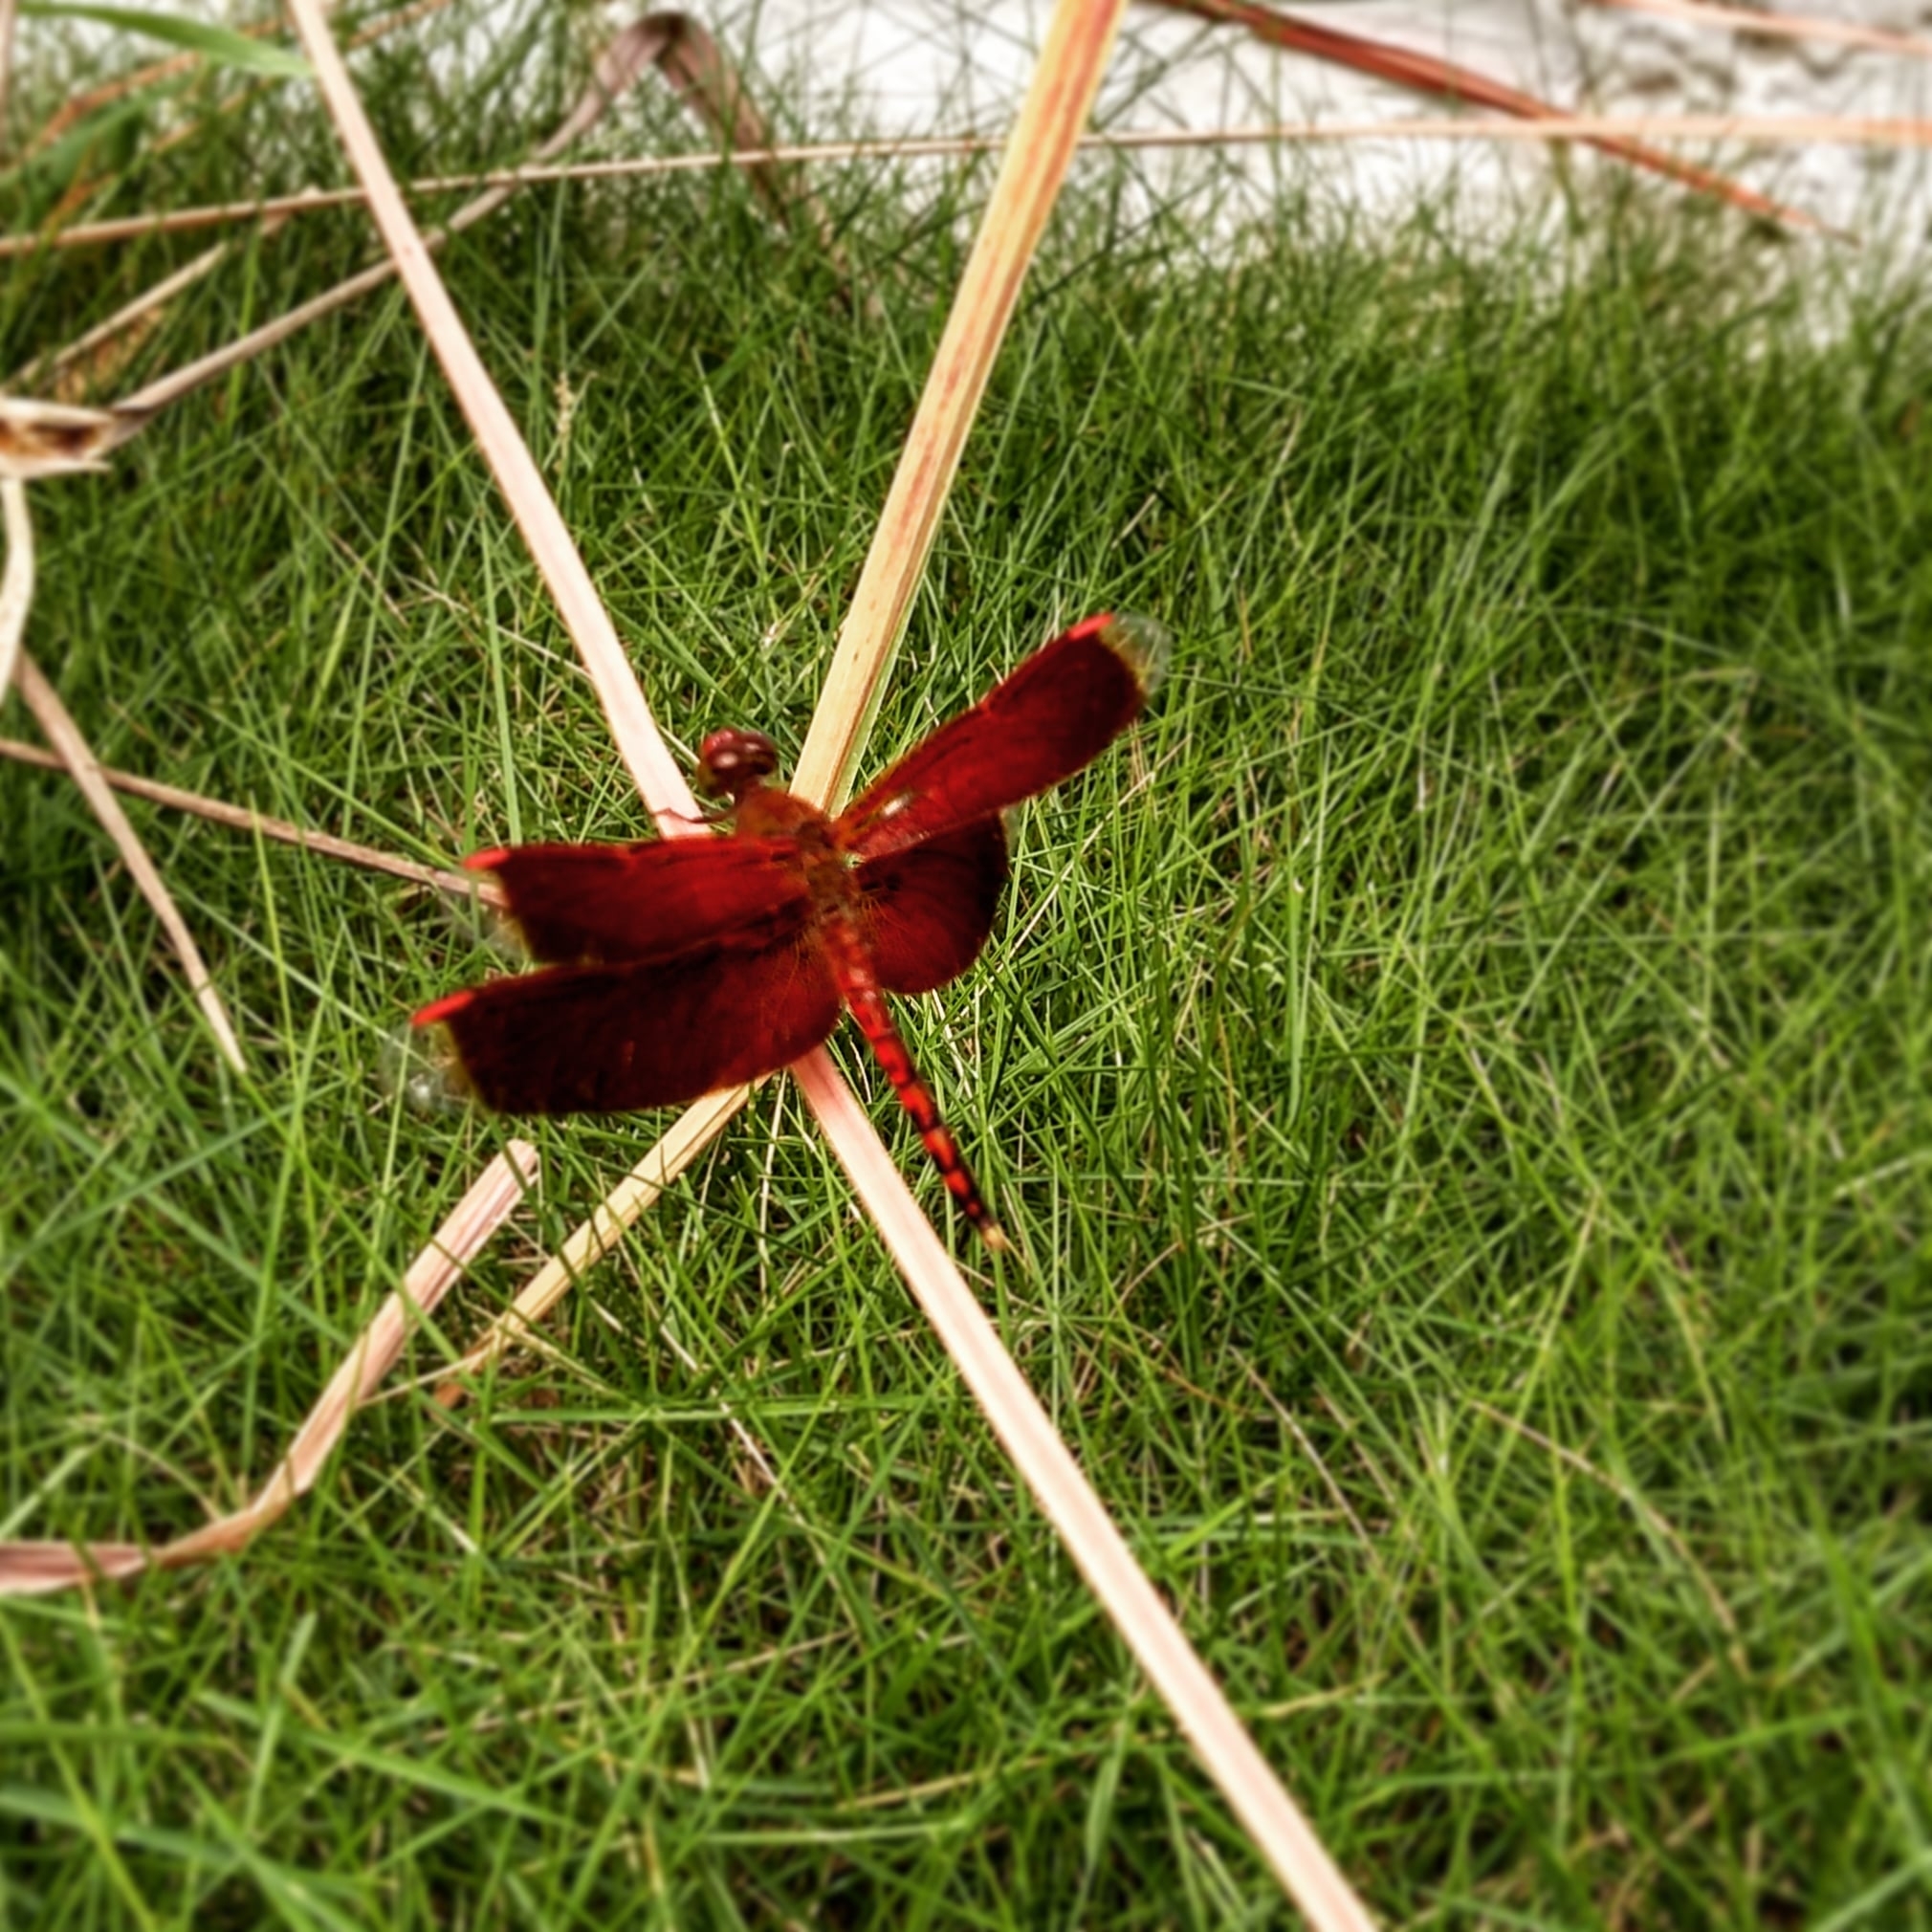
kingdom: Animalia
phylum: Arthropoda
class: Insecta
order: Odonata
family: Libellulidae
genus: Neurothemis
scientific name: Neurothemis terminata
